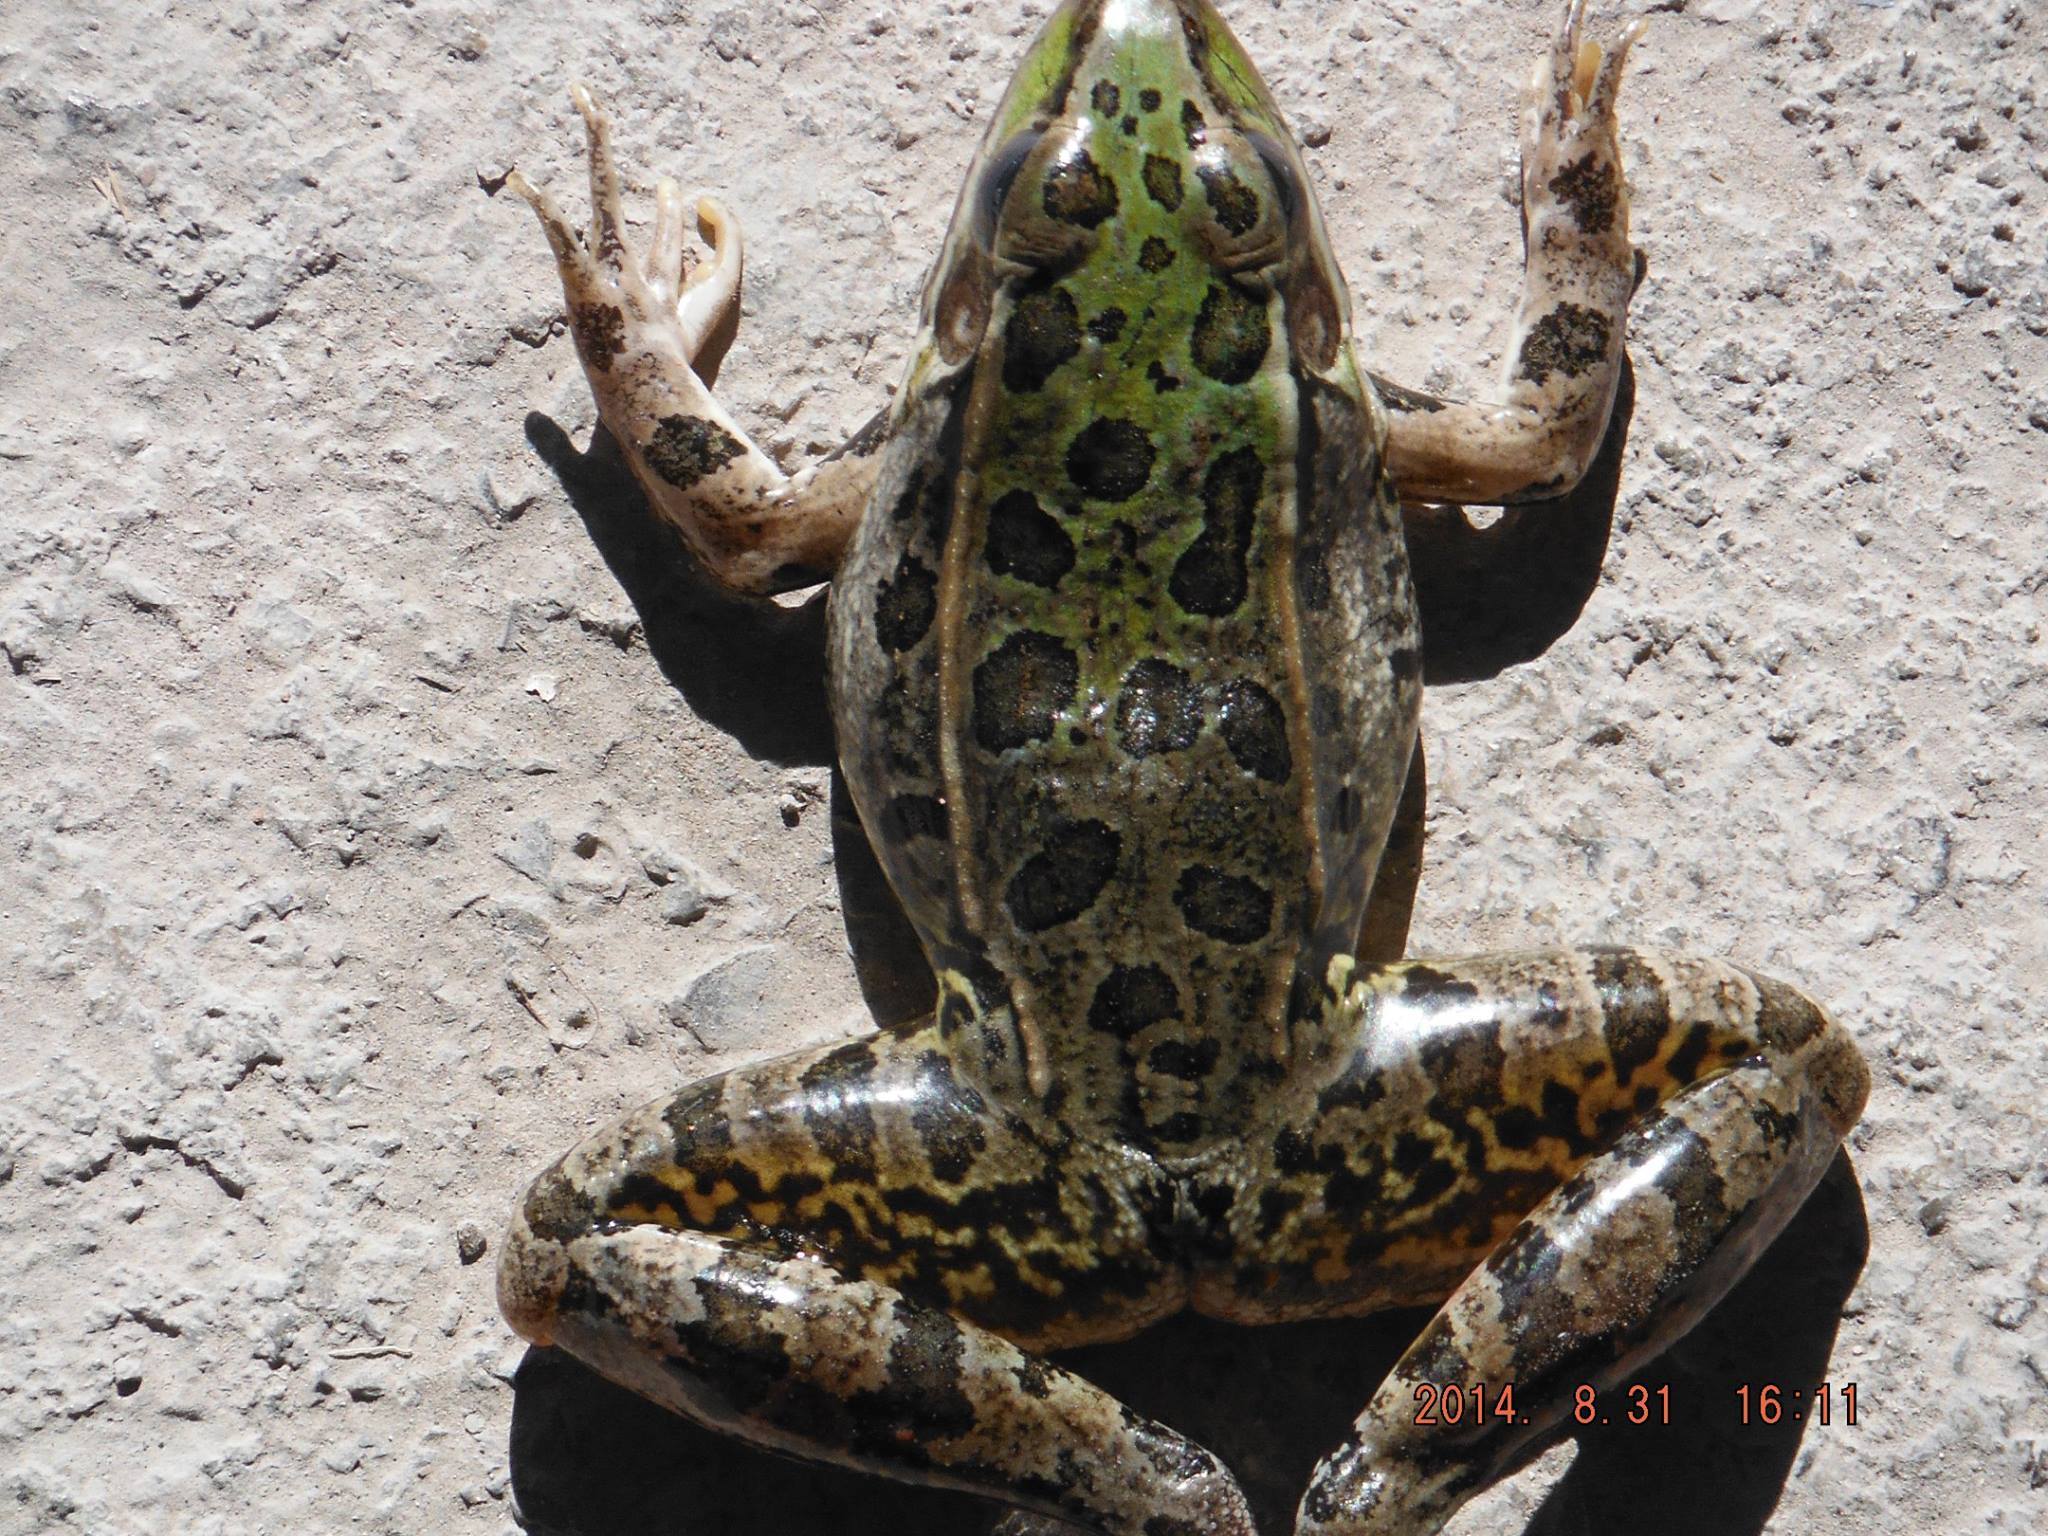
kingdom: Animalia
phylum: Chordata
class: Amphibia
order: Anura
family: Ranidae
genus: Lithobates
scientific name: Lithobates berlandieri
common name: Rio grande leopard frog
